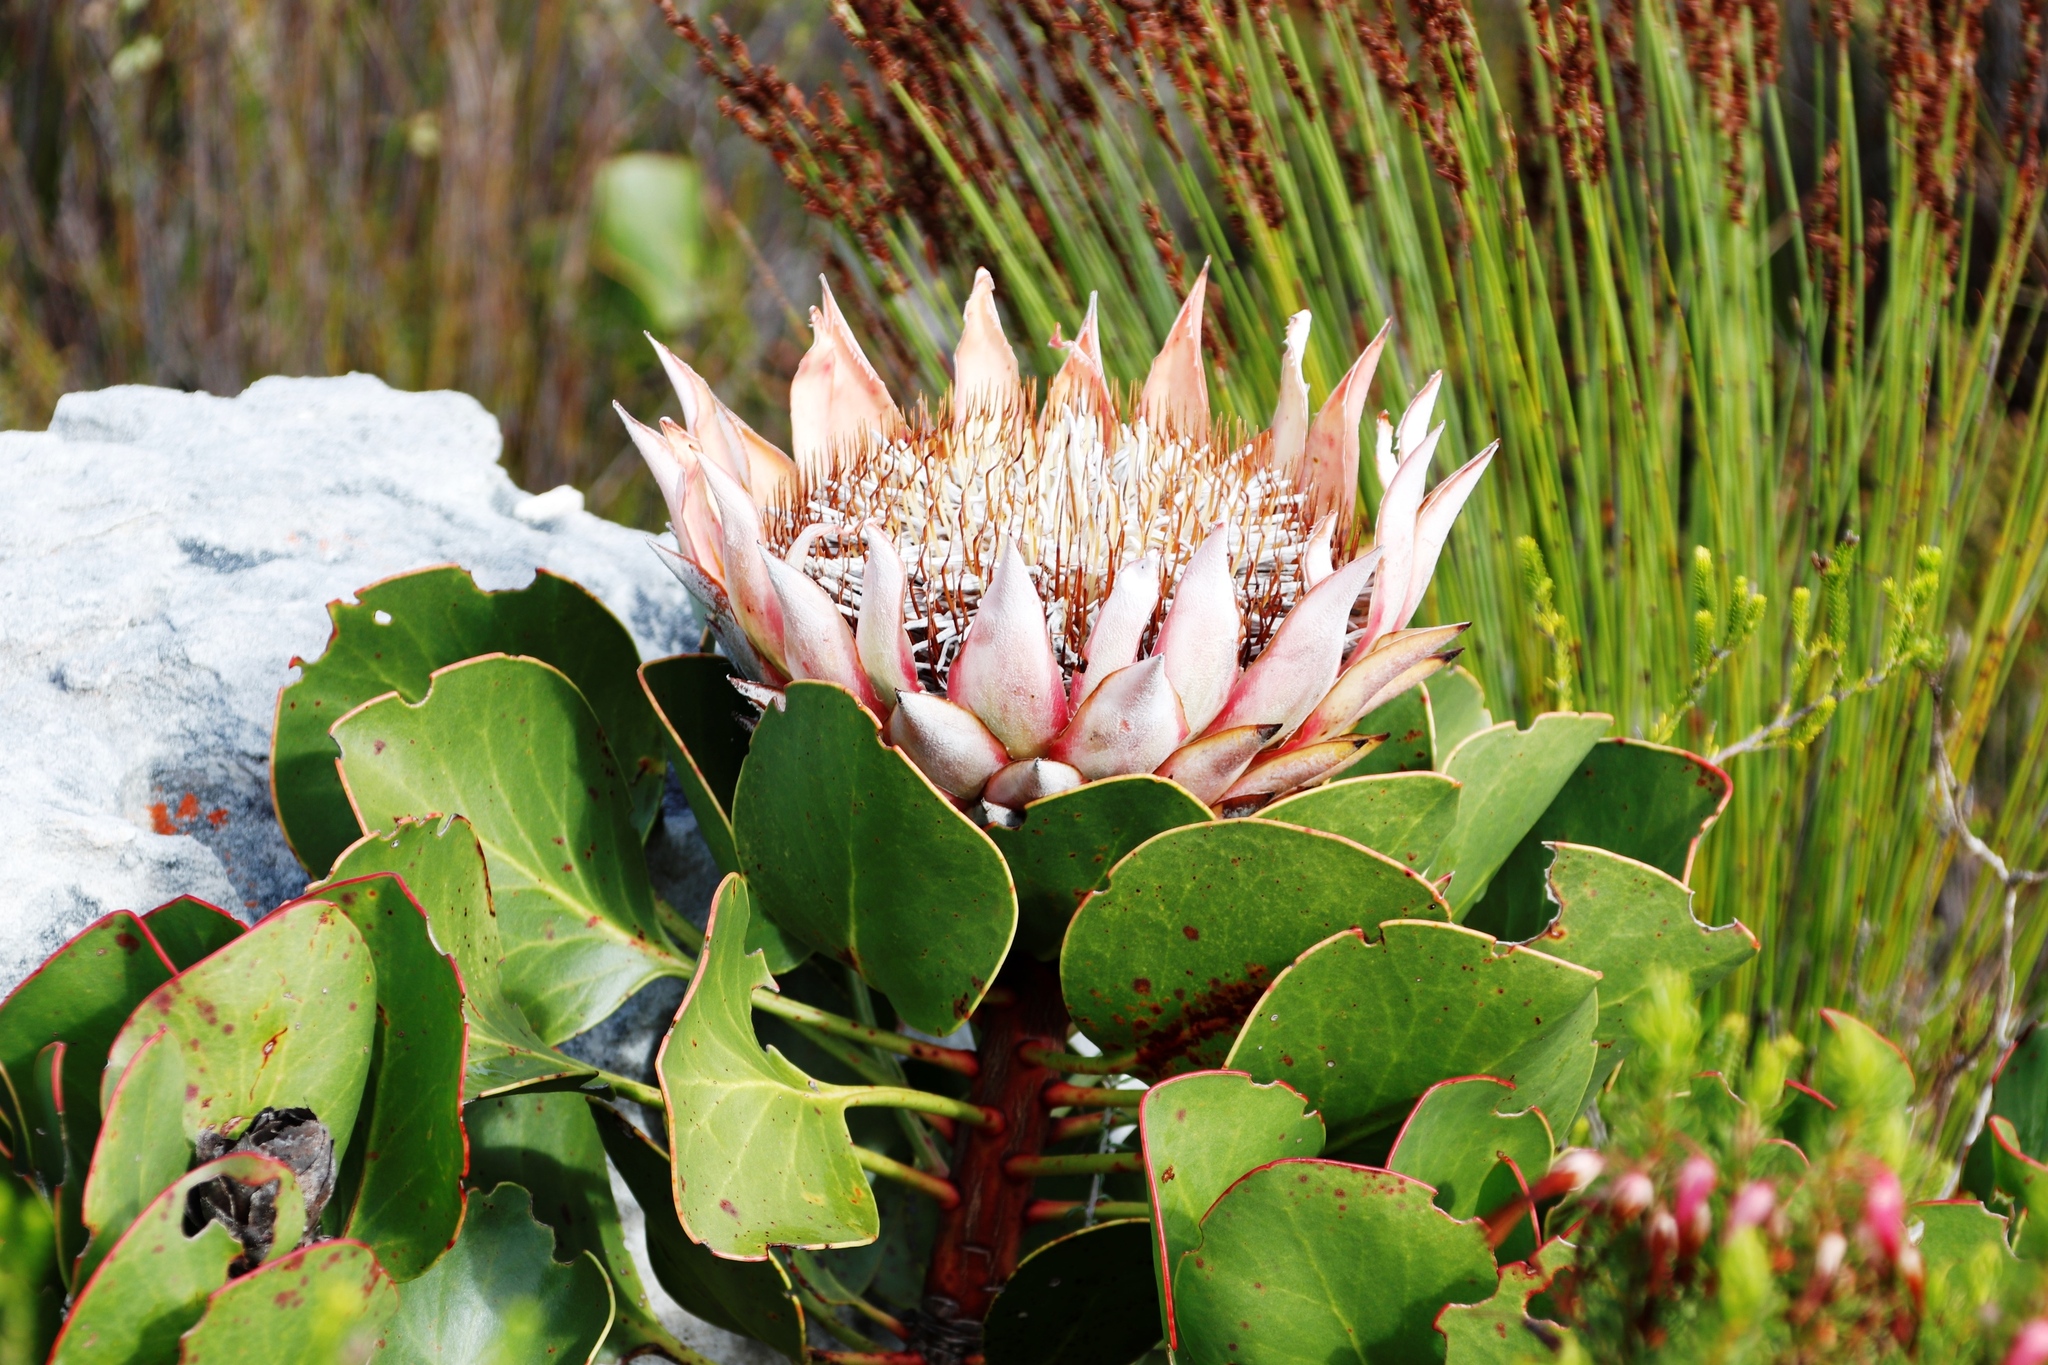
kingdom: Plantae
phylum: Tracheophyta
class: Magnoliopsida
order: Proteales
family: Proteaceae
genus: Protea
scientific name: Protea cynaroides
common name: King protea
